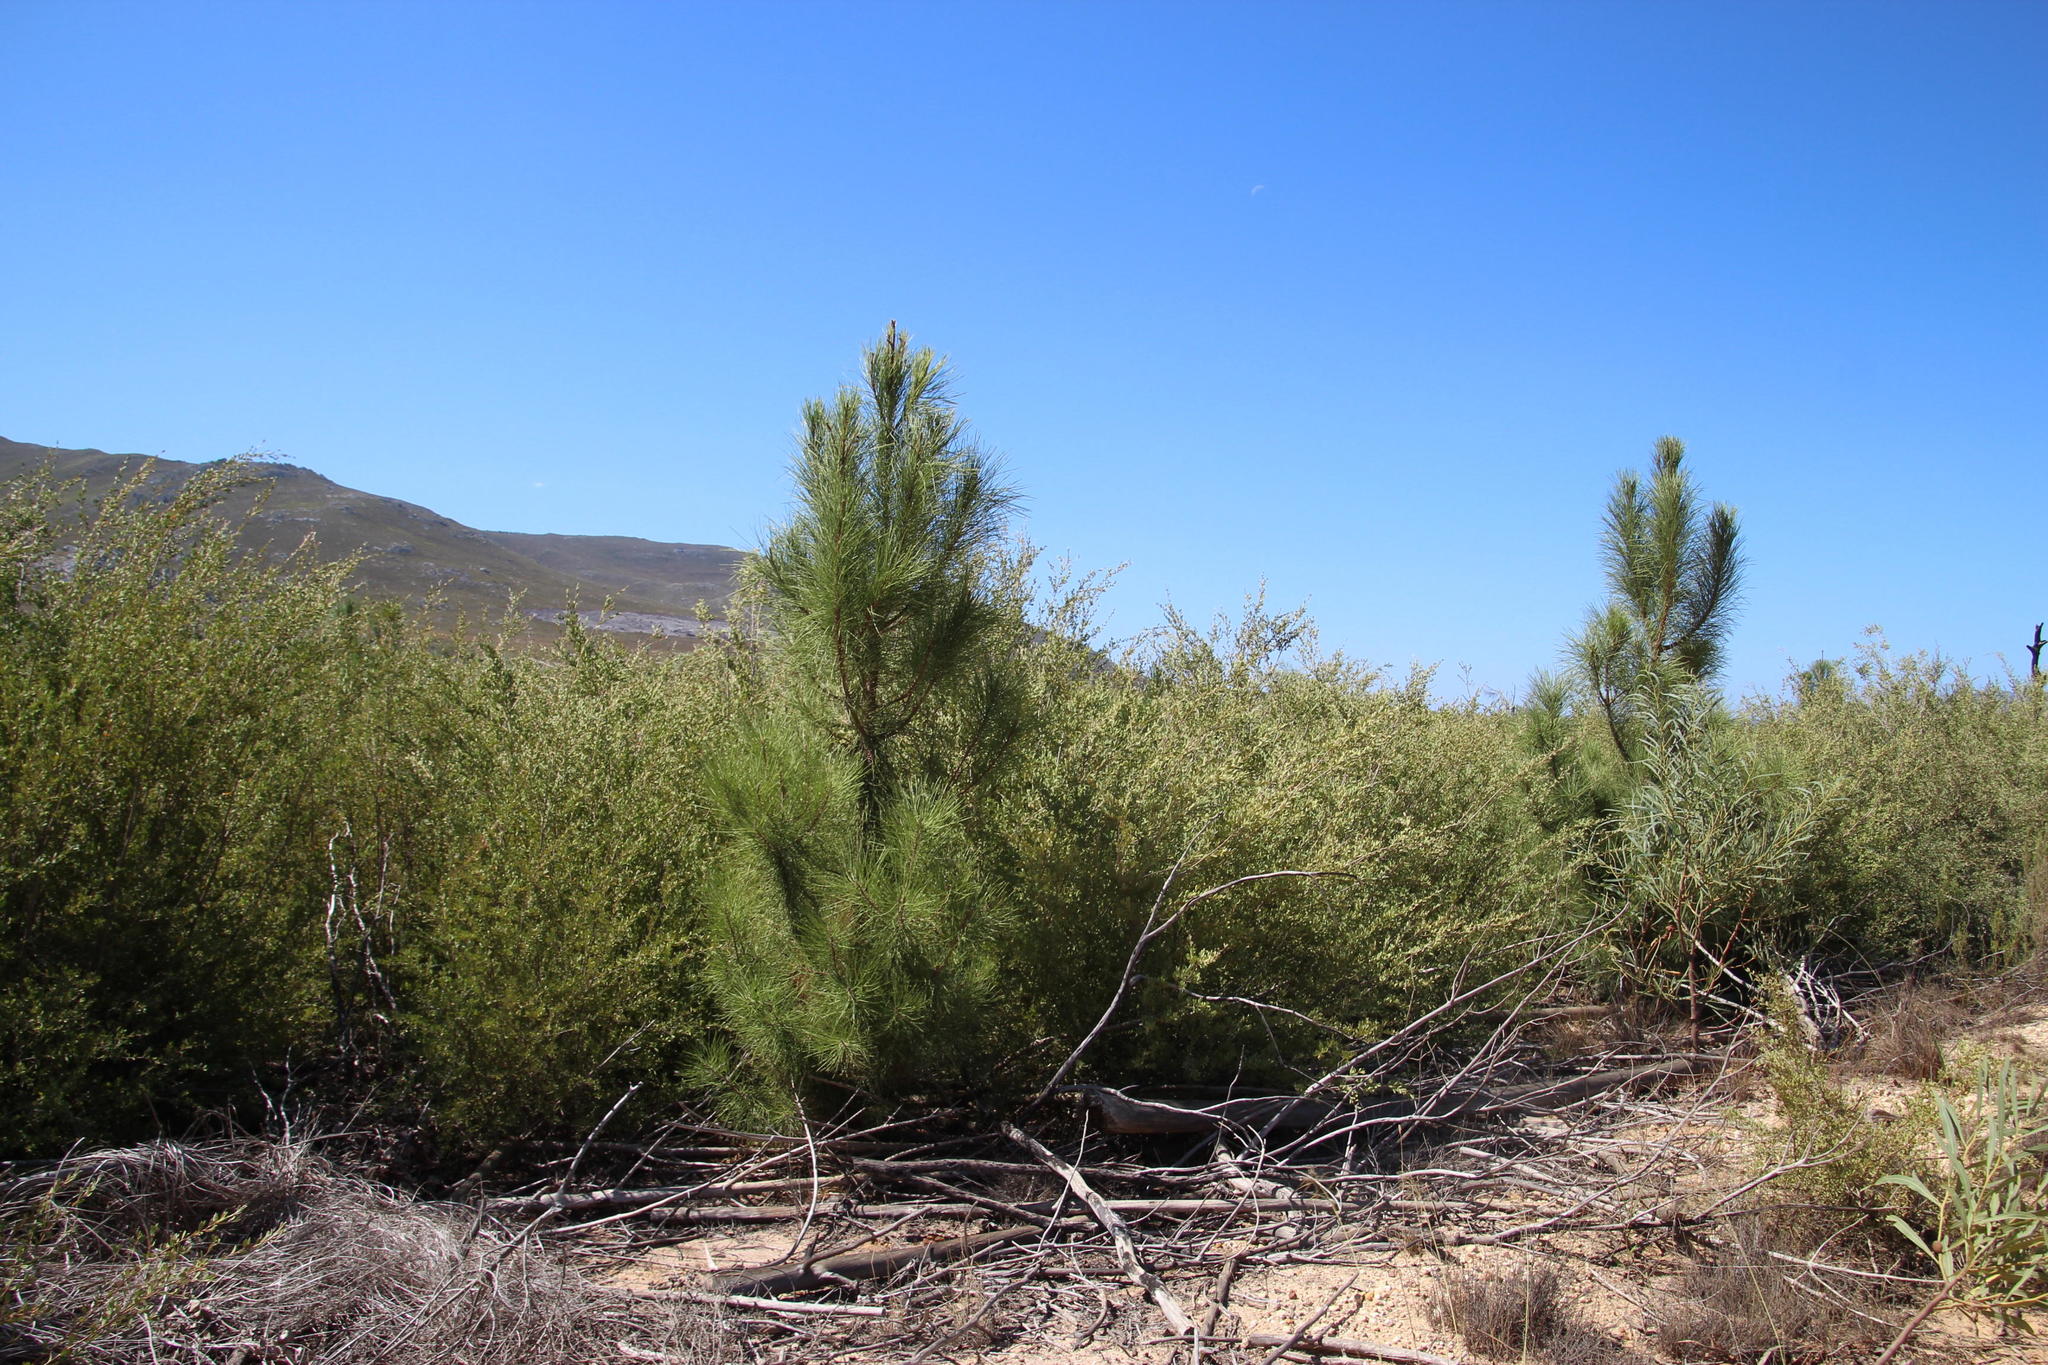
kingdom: Plantae
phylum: Tracheophyta
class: Pinopsida
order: Pinales
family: Pinaceae
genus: Pinus
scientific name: Pinus pinaster
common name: Maritime pine
